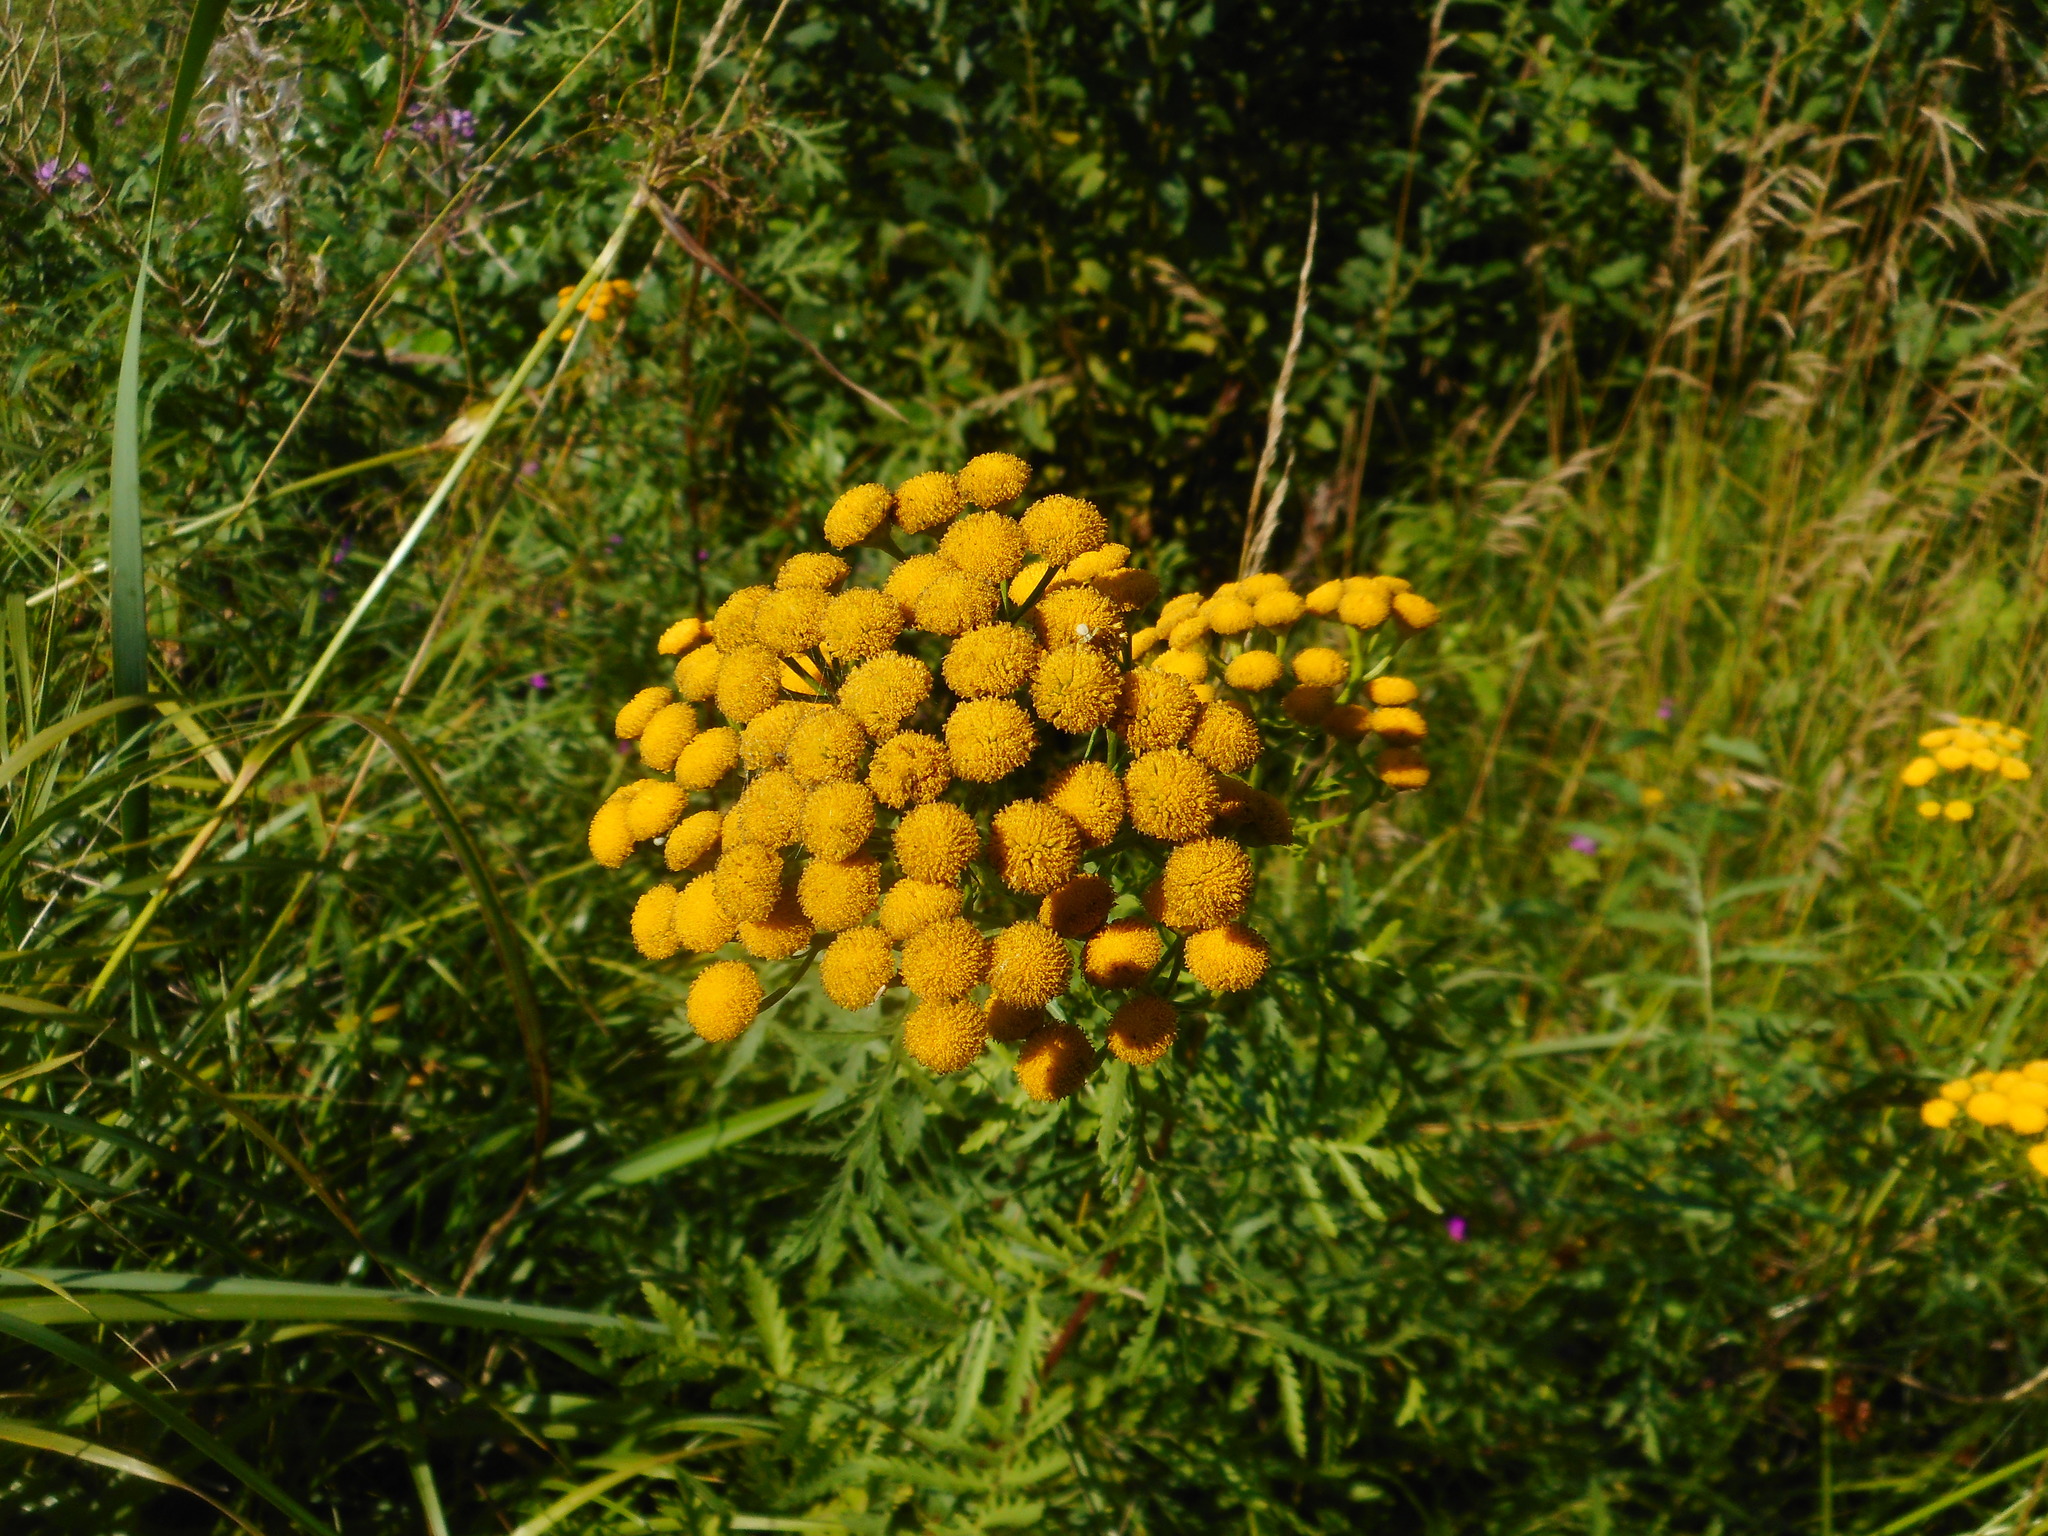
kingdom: Plantae
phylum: Tracheophyta
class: Magnoliopsida
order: Asterales
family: Asteraceae
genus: Tanacetum
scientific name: Tanacetum vulgare
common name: Common tansy
